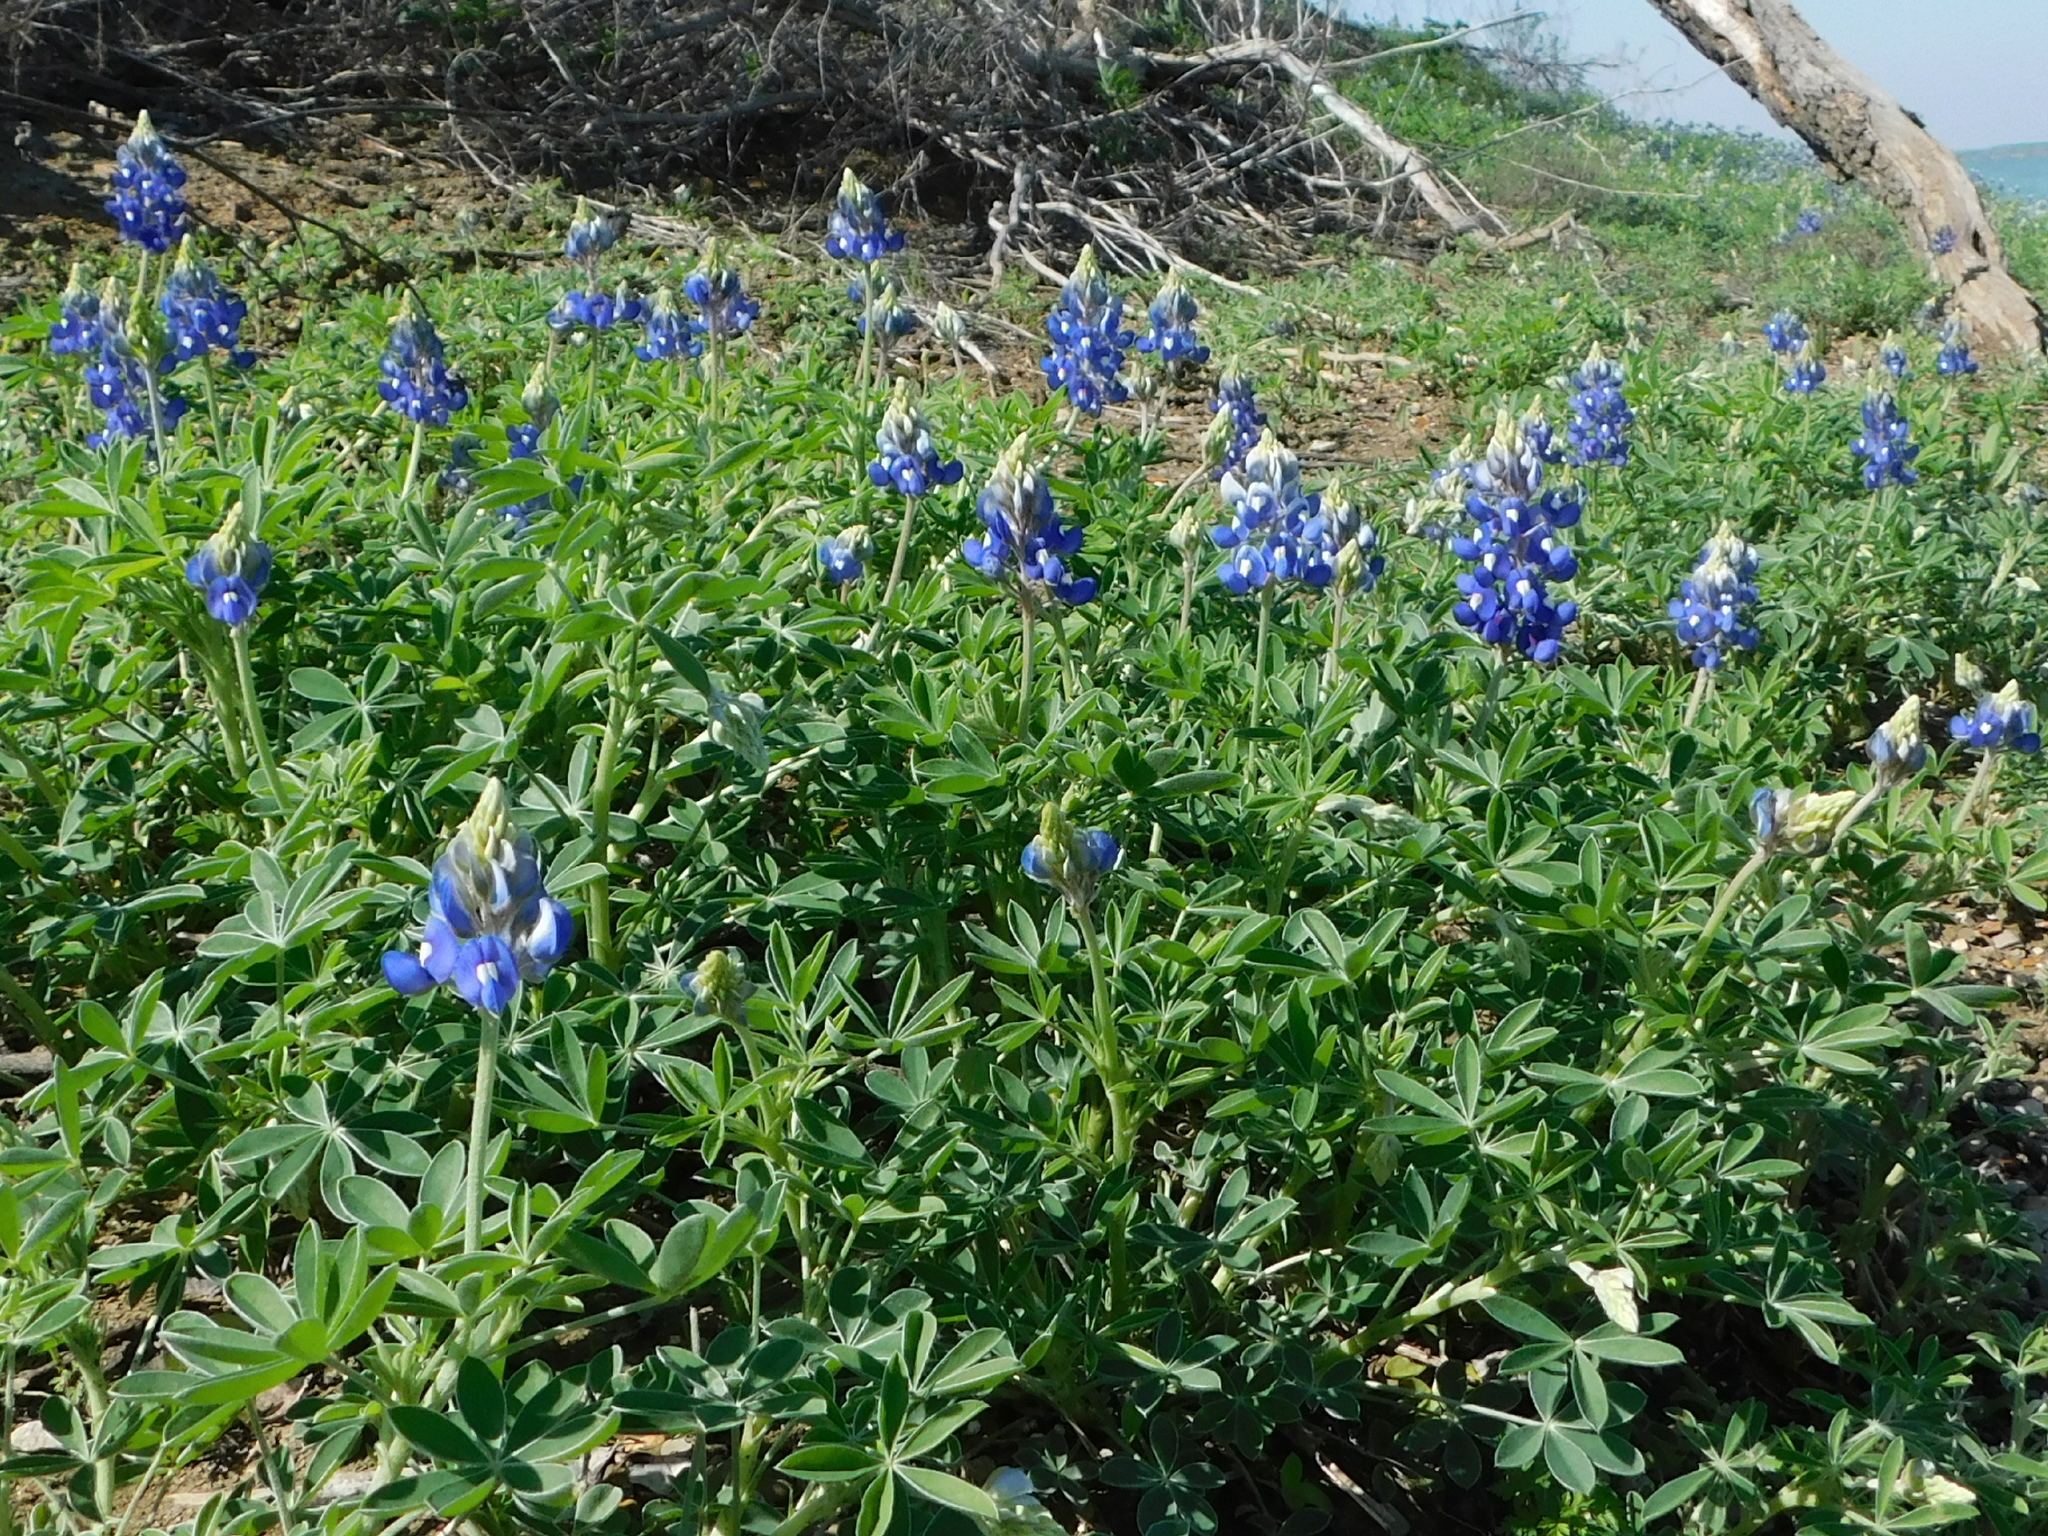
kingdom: Plantae
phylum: Tracheophyta
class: Magnoliopsida
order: Fabales
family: Fabaceae
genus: Lupinus
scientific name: Lupinus texensis
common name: Texas bluebonnet
